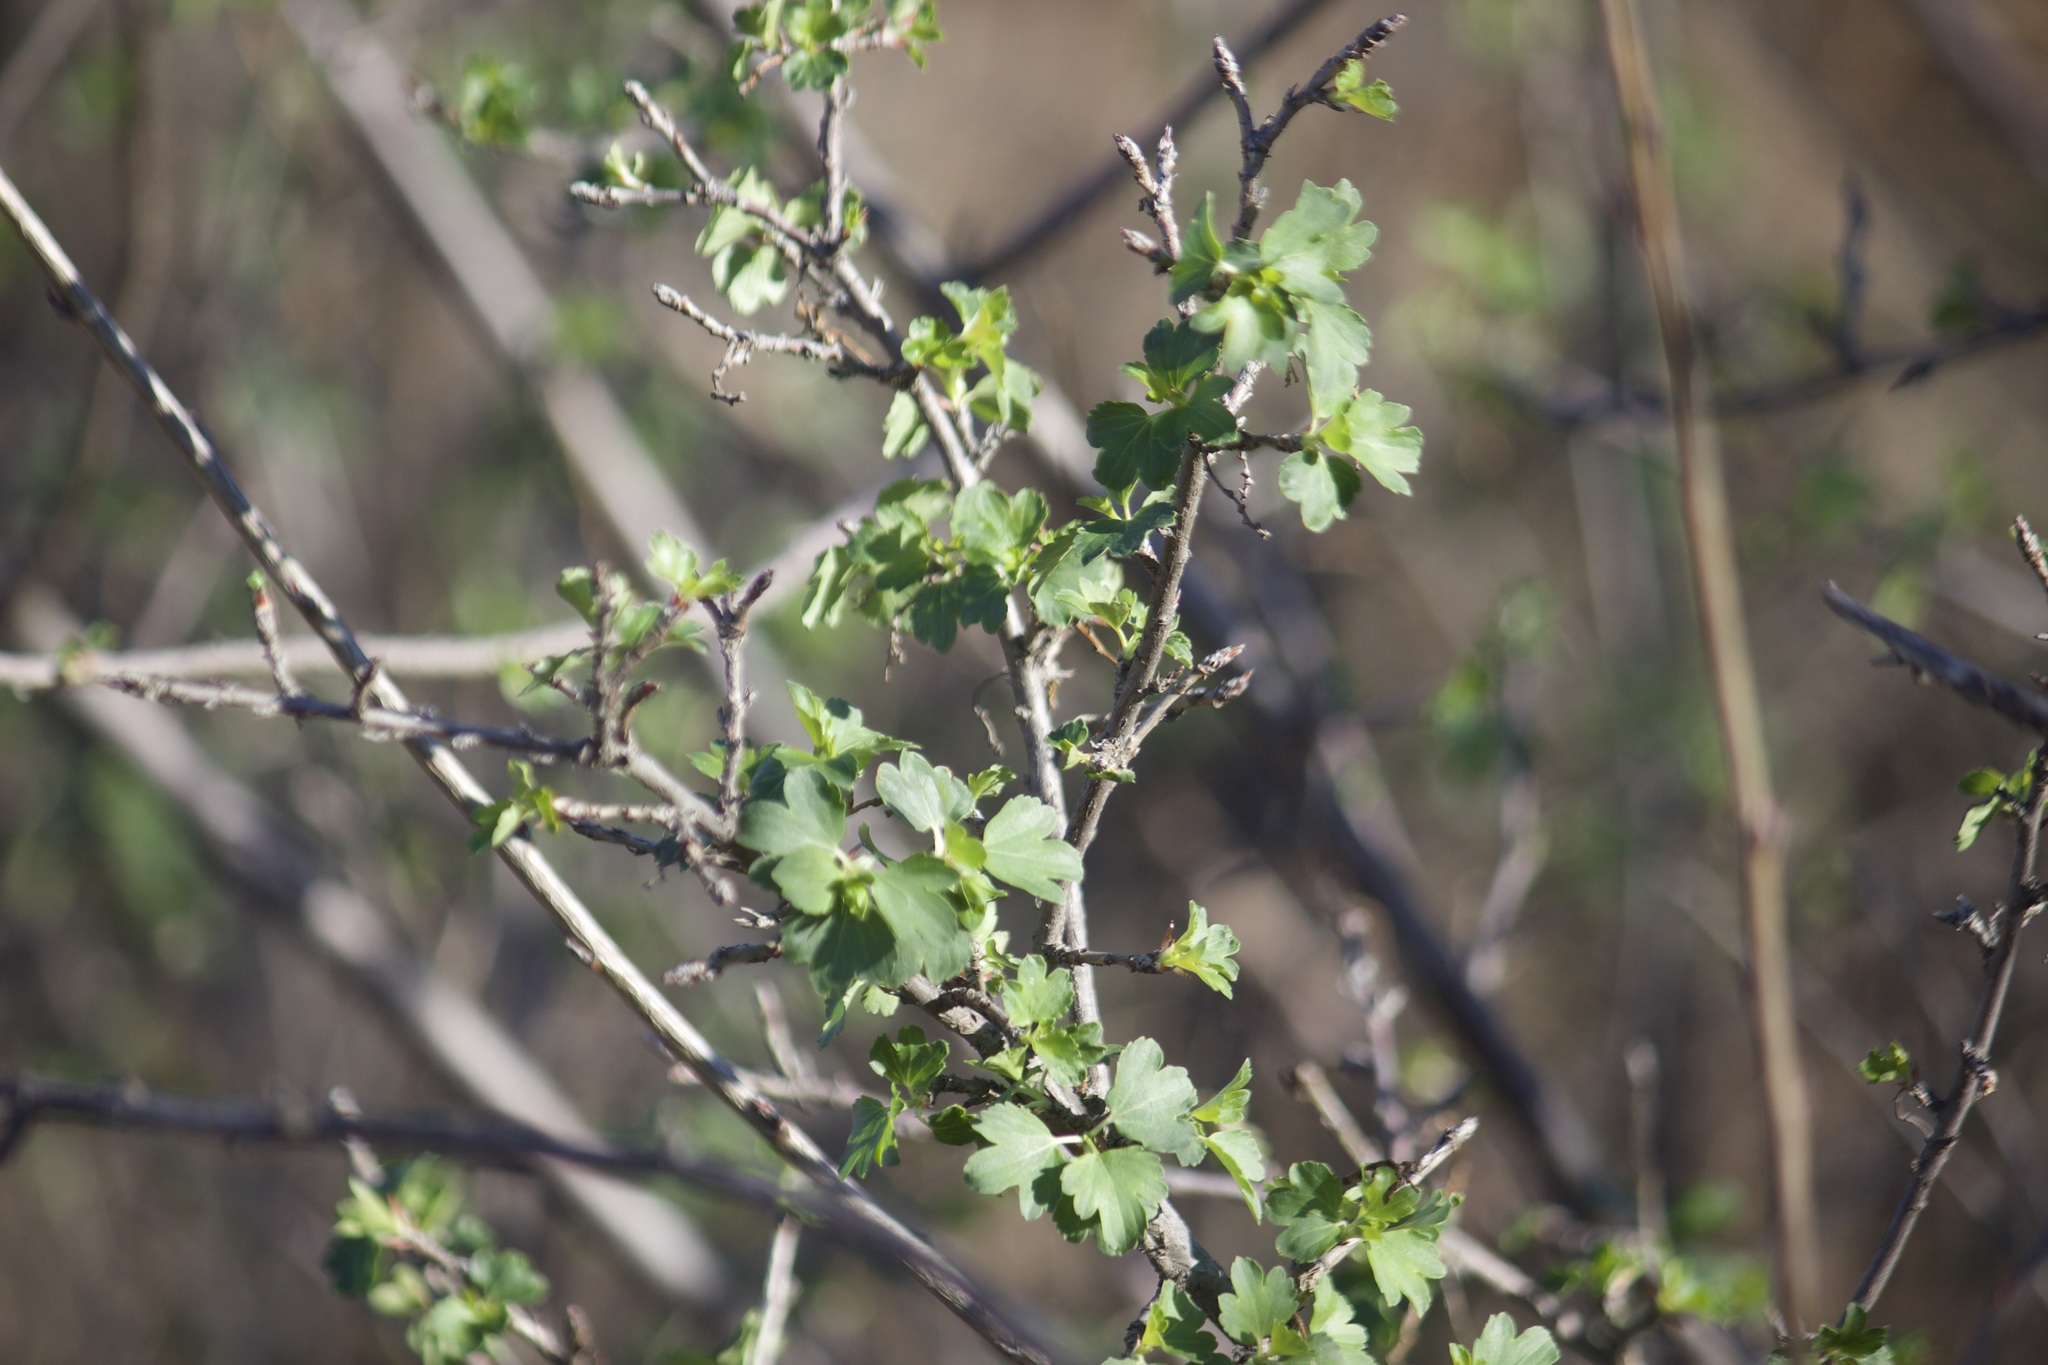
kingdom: Plantae
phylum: Tracheophyta
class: Magnoliopsida
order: Saxifragales
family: Grossulariaceae
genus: Ribes
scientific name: Ribes aureum
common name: Golden currant
